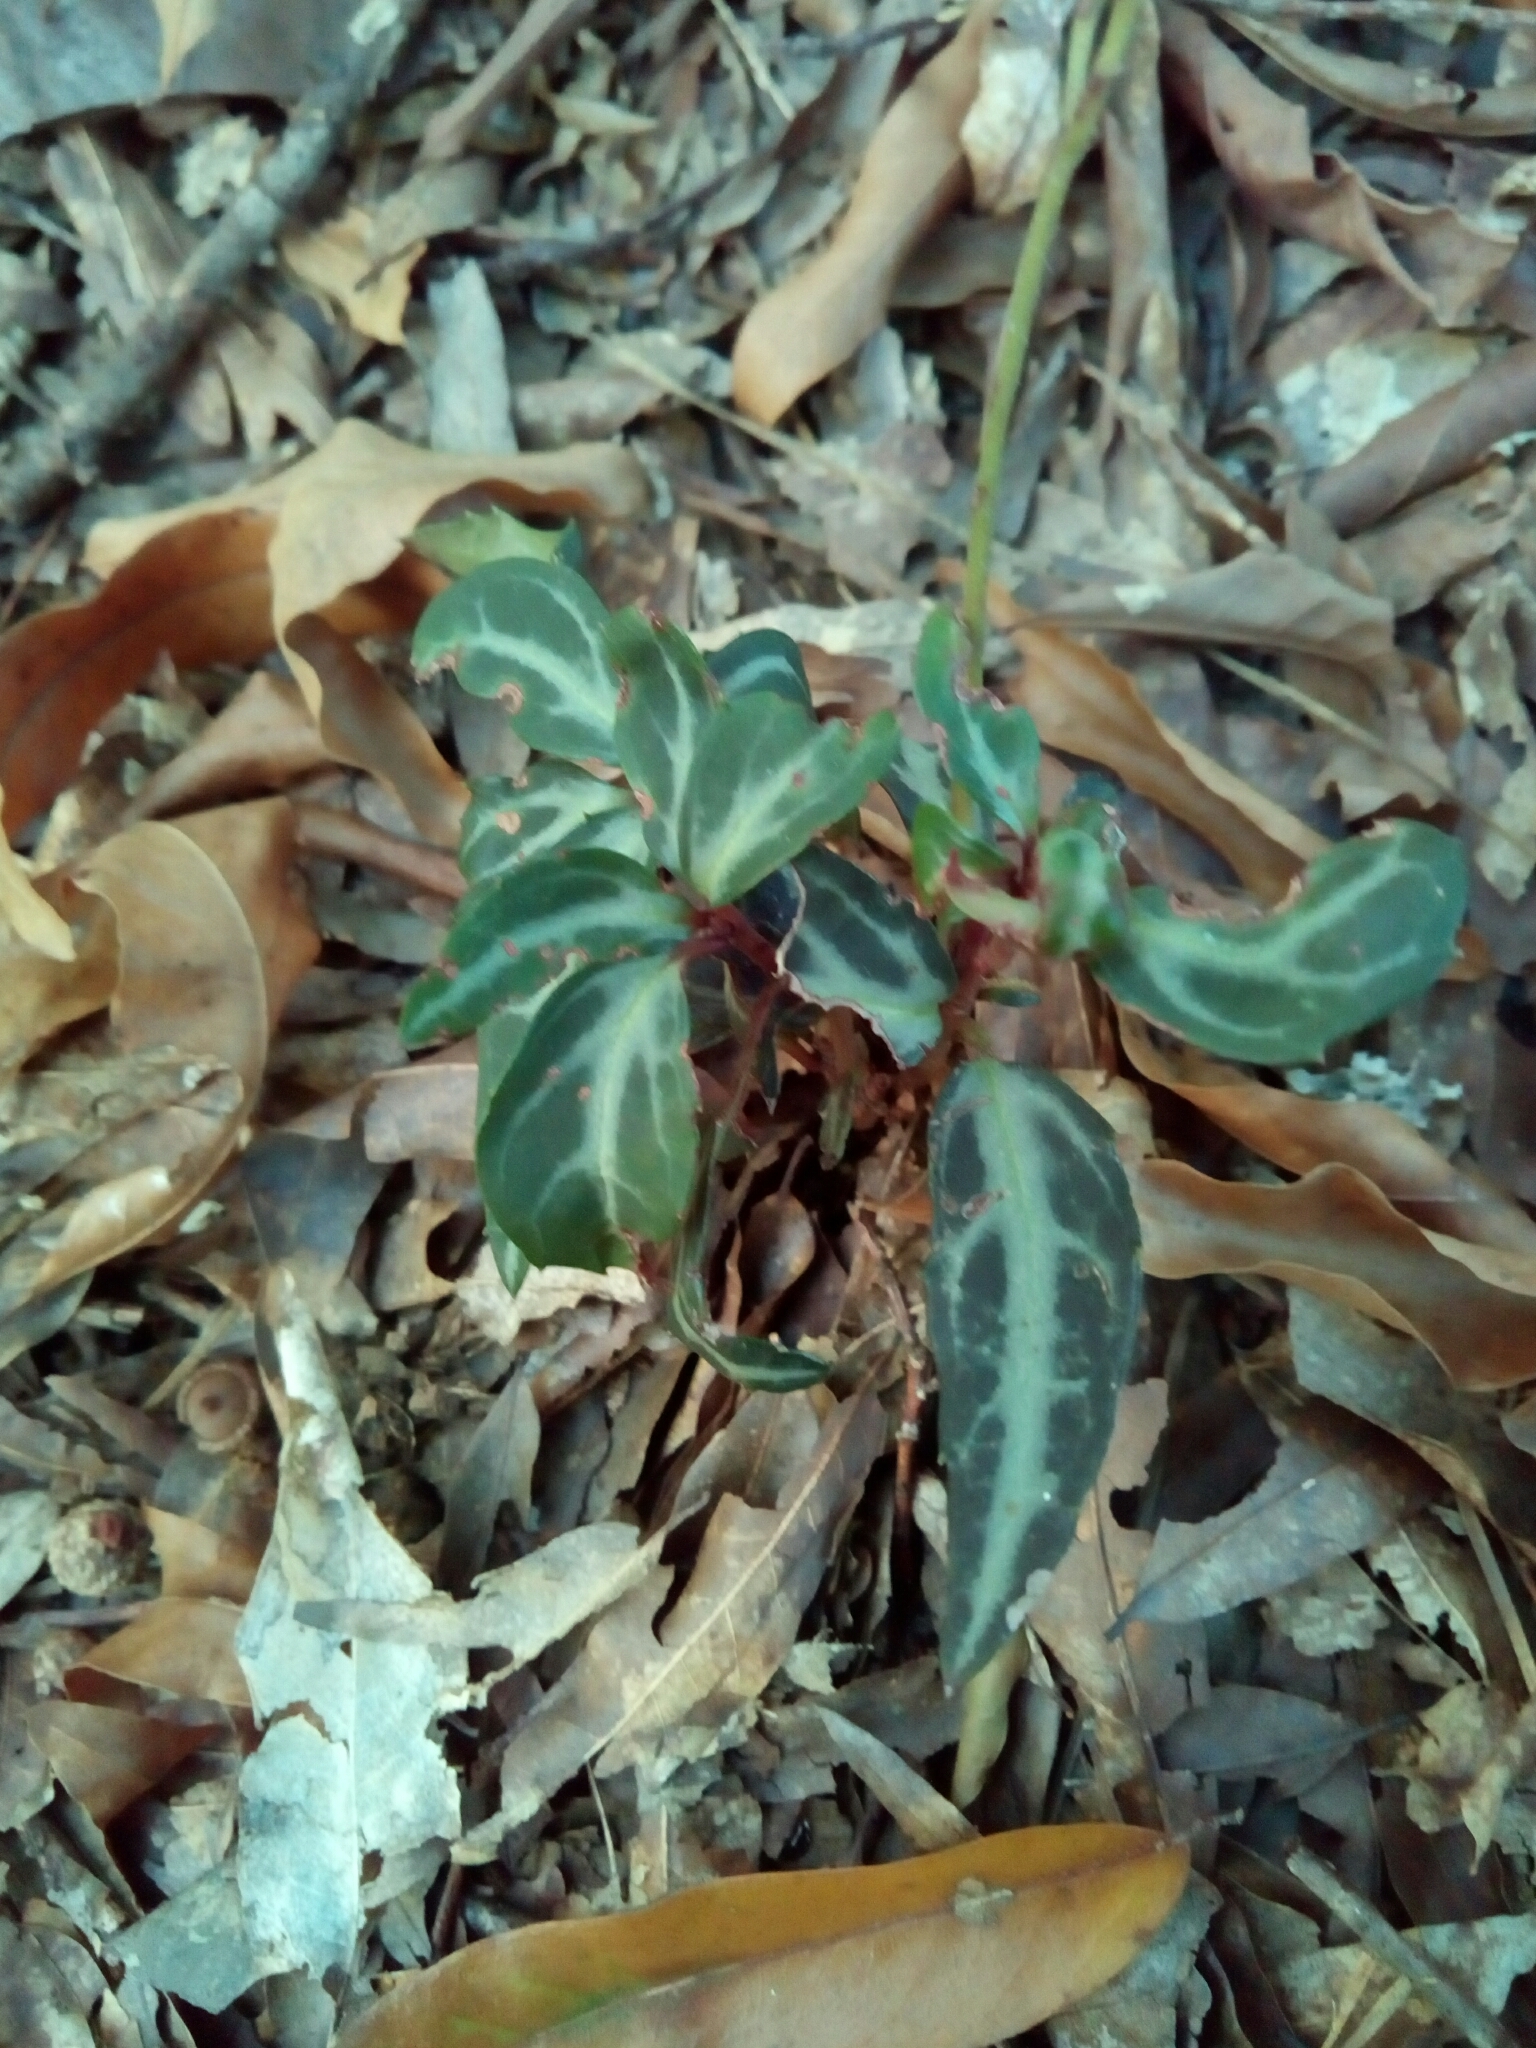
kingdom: Plantae
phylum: Tracheophyta
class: Magnoliopsida
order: Ericales
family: Ericaceae
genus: Chimaphila
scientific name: Chimaphila maculata
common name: Spotted pipsissewa
